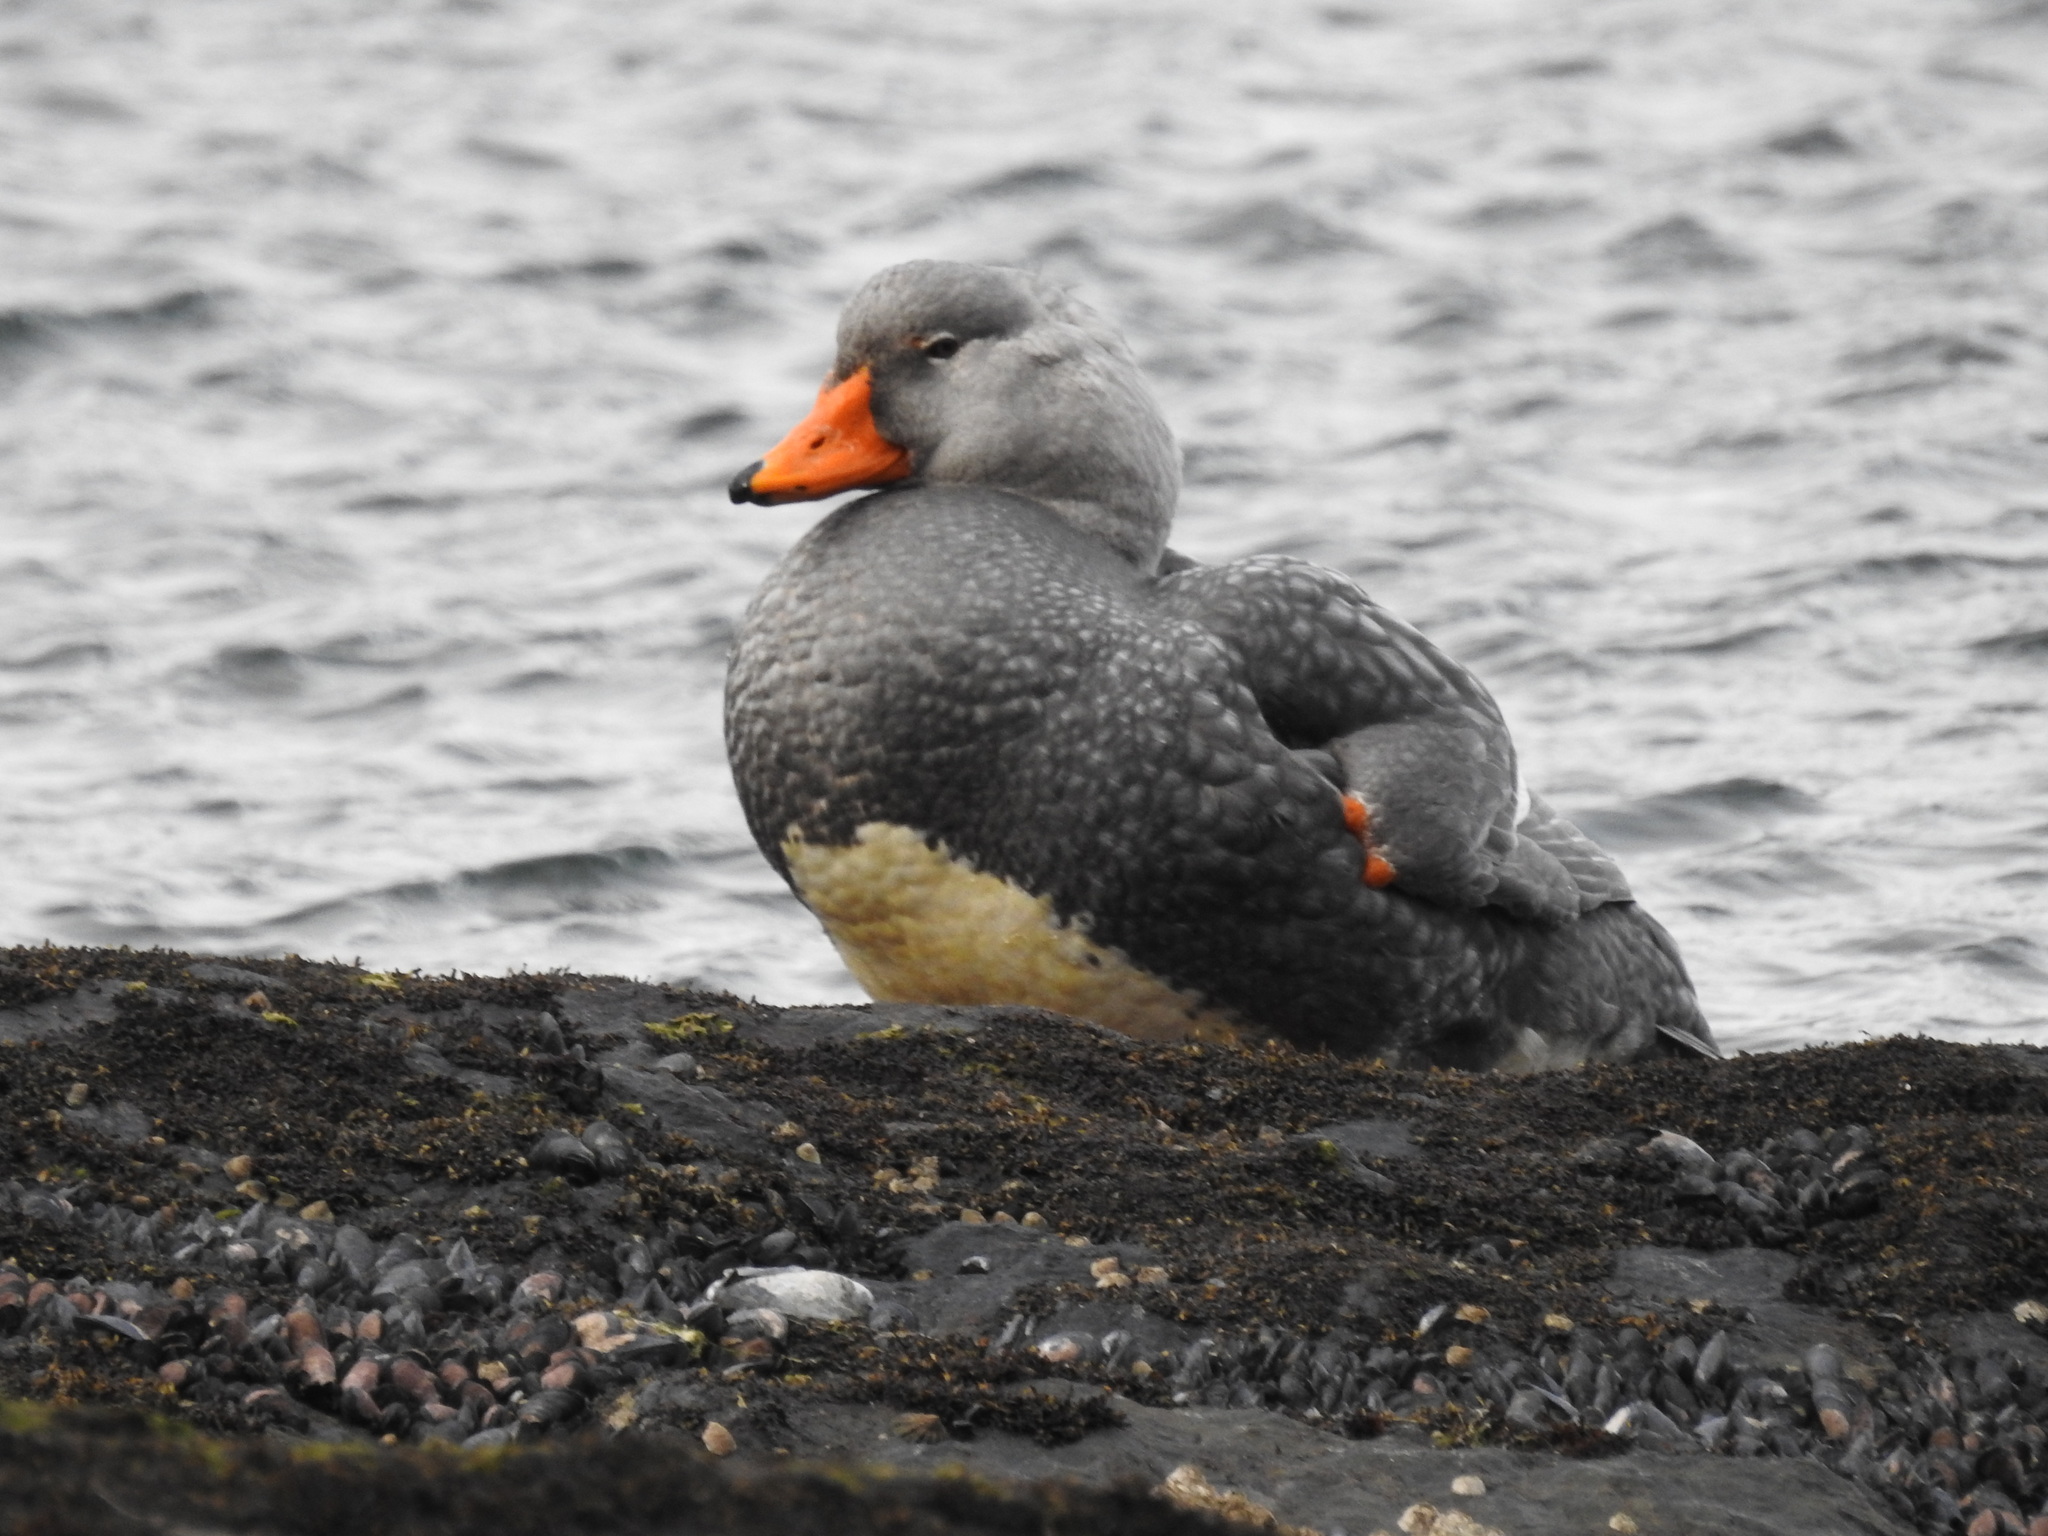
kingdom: Animalia
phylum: Chordata
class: Aves
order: Anseriformes
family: Anatidae
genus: Tachyeres
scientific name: Tachyeres pteneres
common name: Fuegian steamer duck
